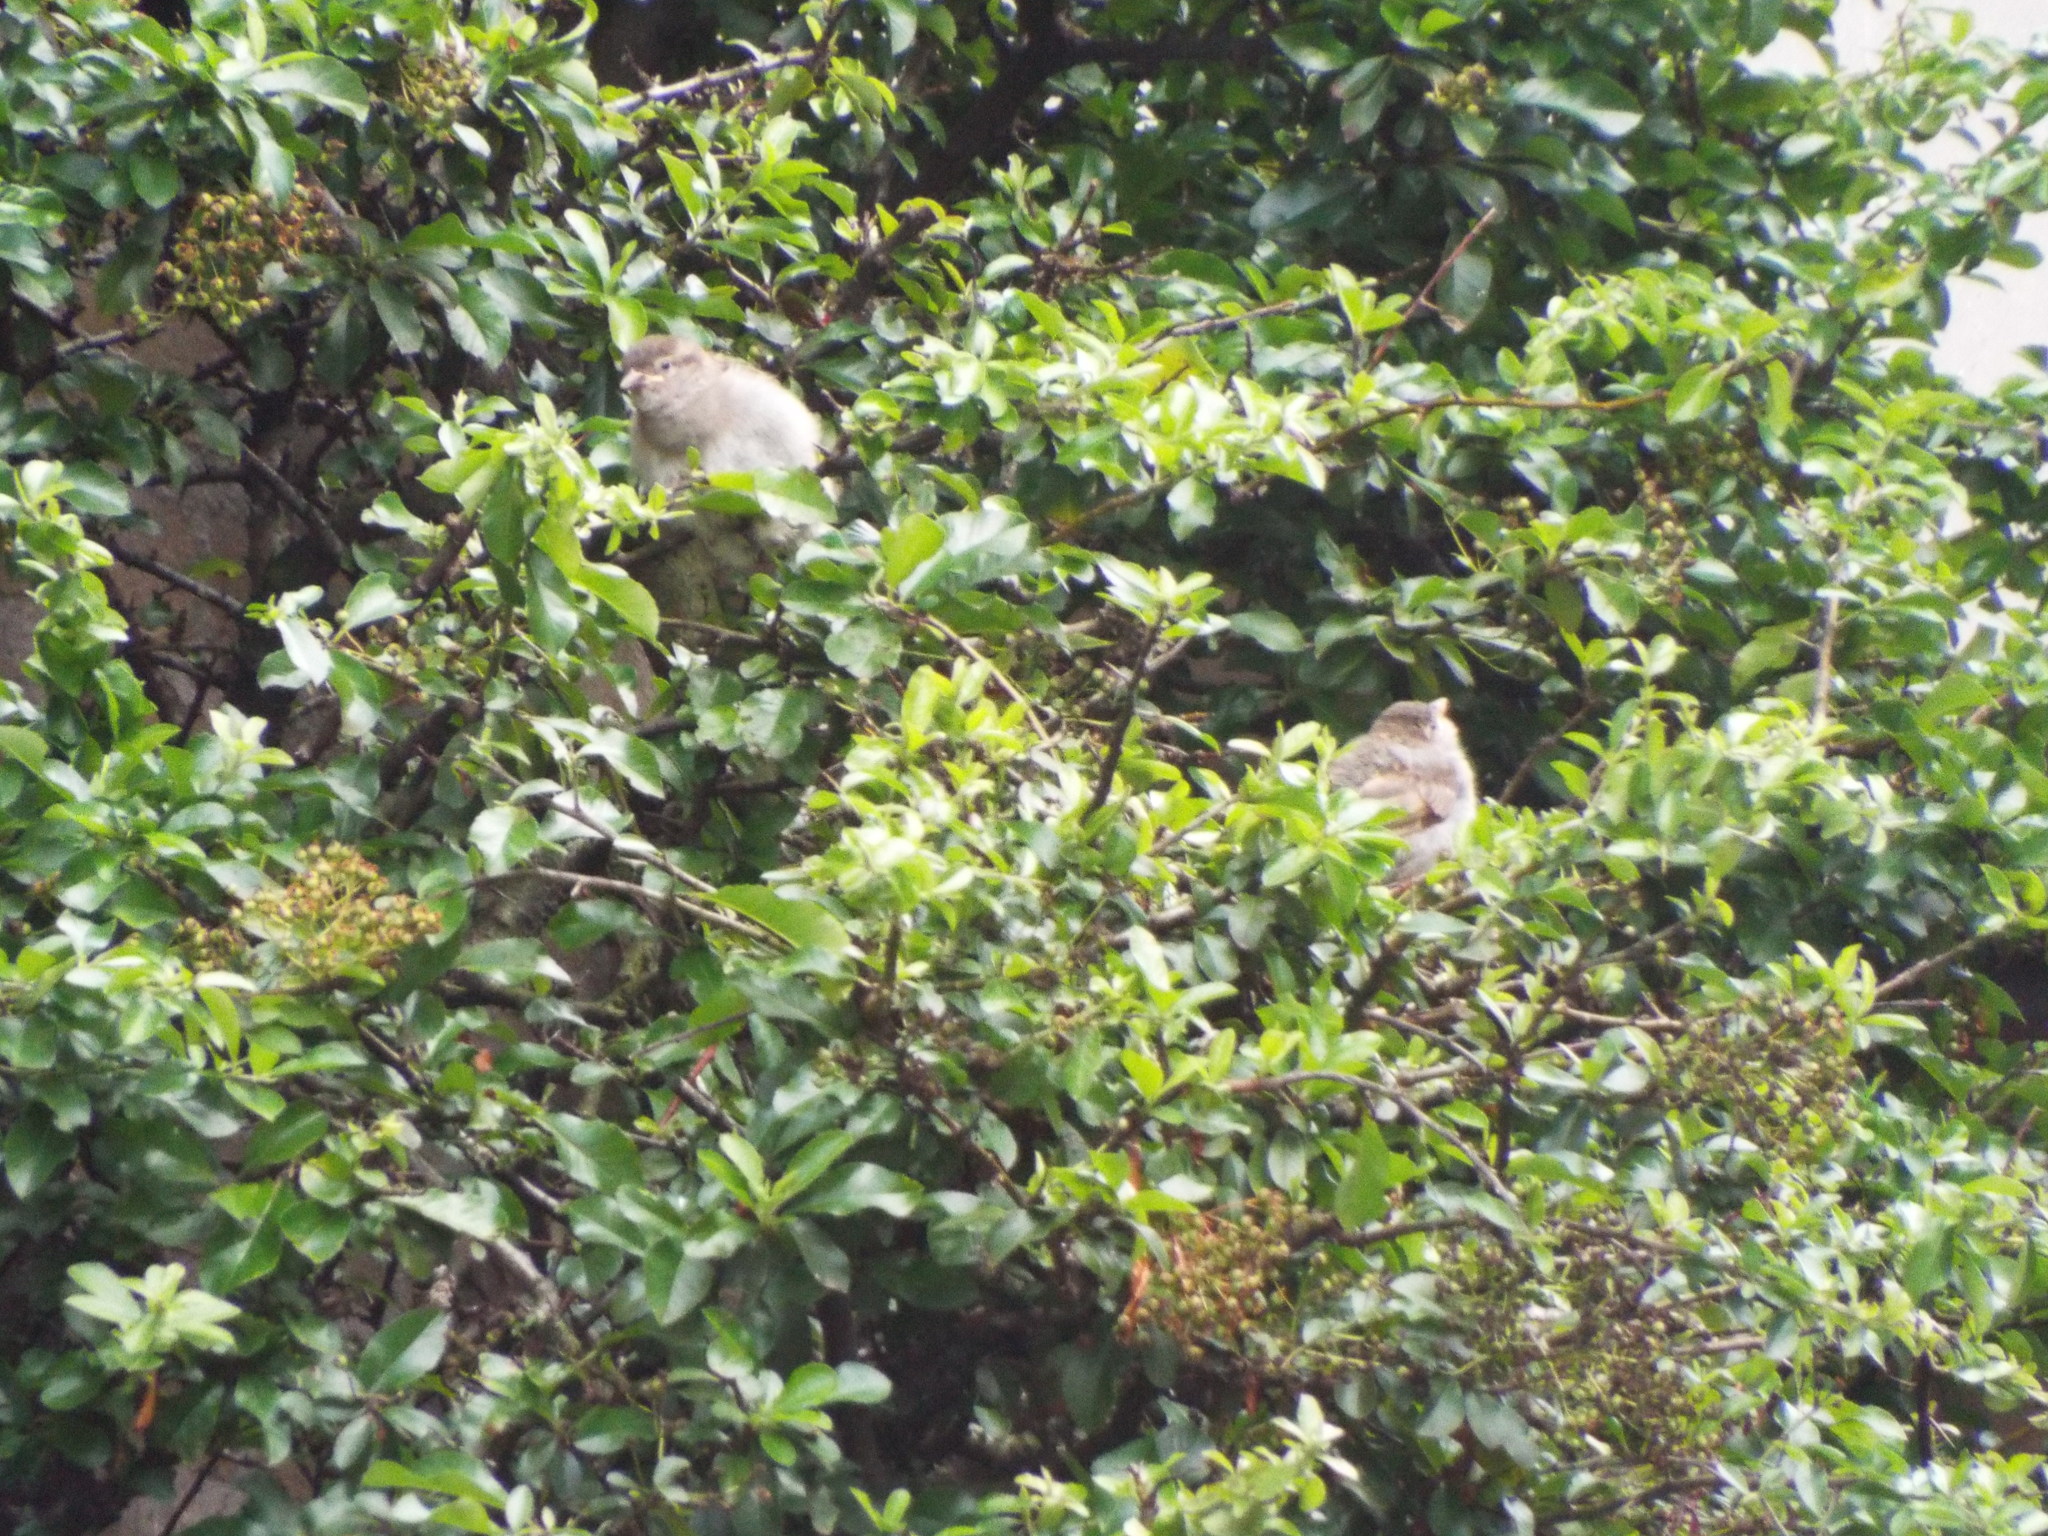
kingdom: Animalia
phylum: Chordata
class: Aves
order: Passeriformes
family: Passeridae
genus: Passer
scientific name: Passer domesticus
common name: House sparrow
